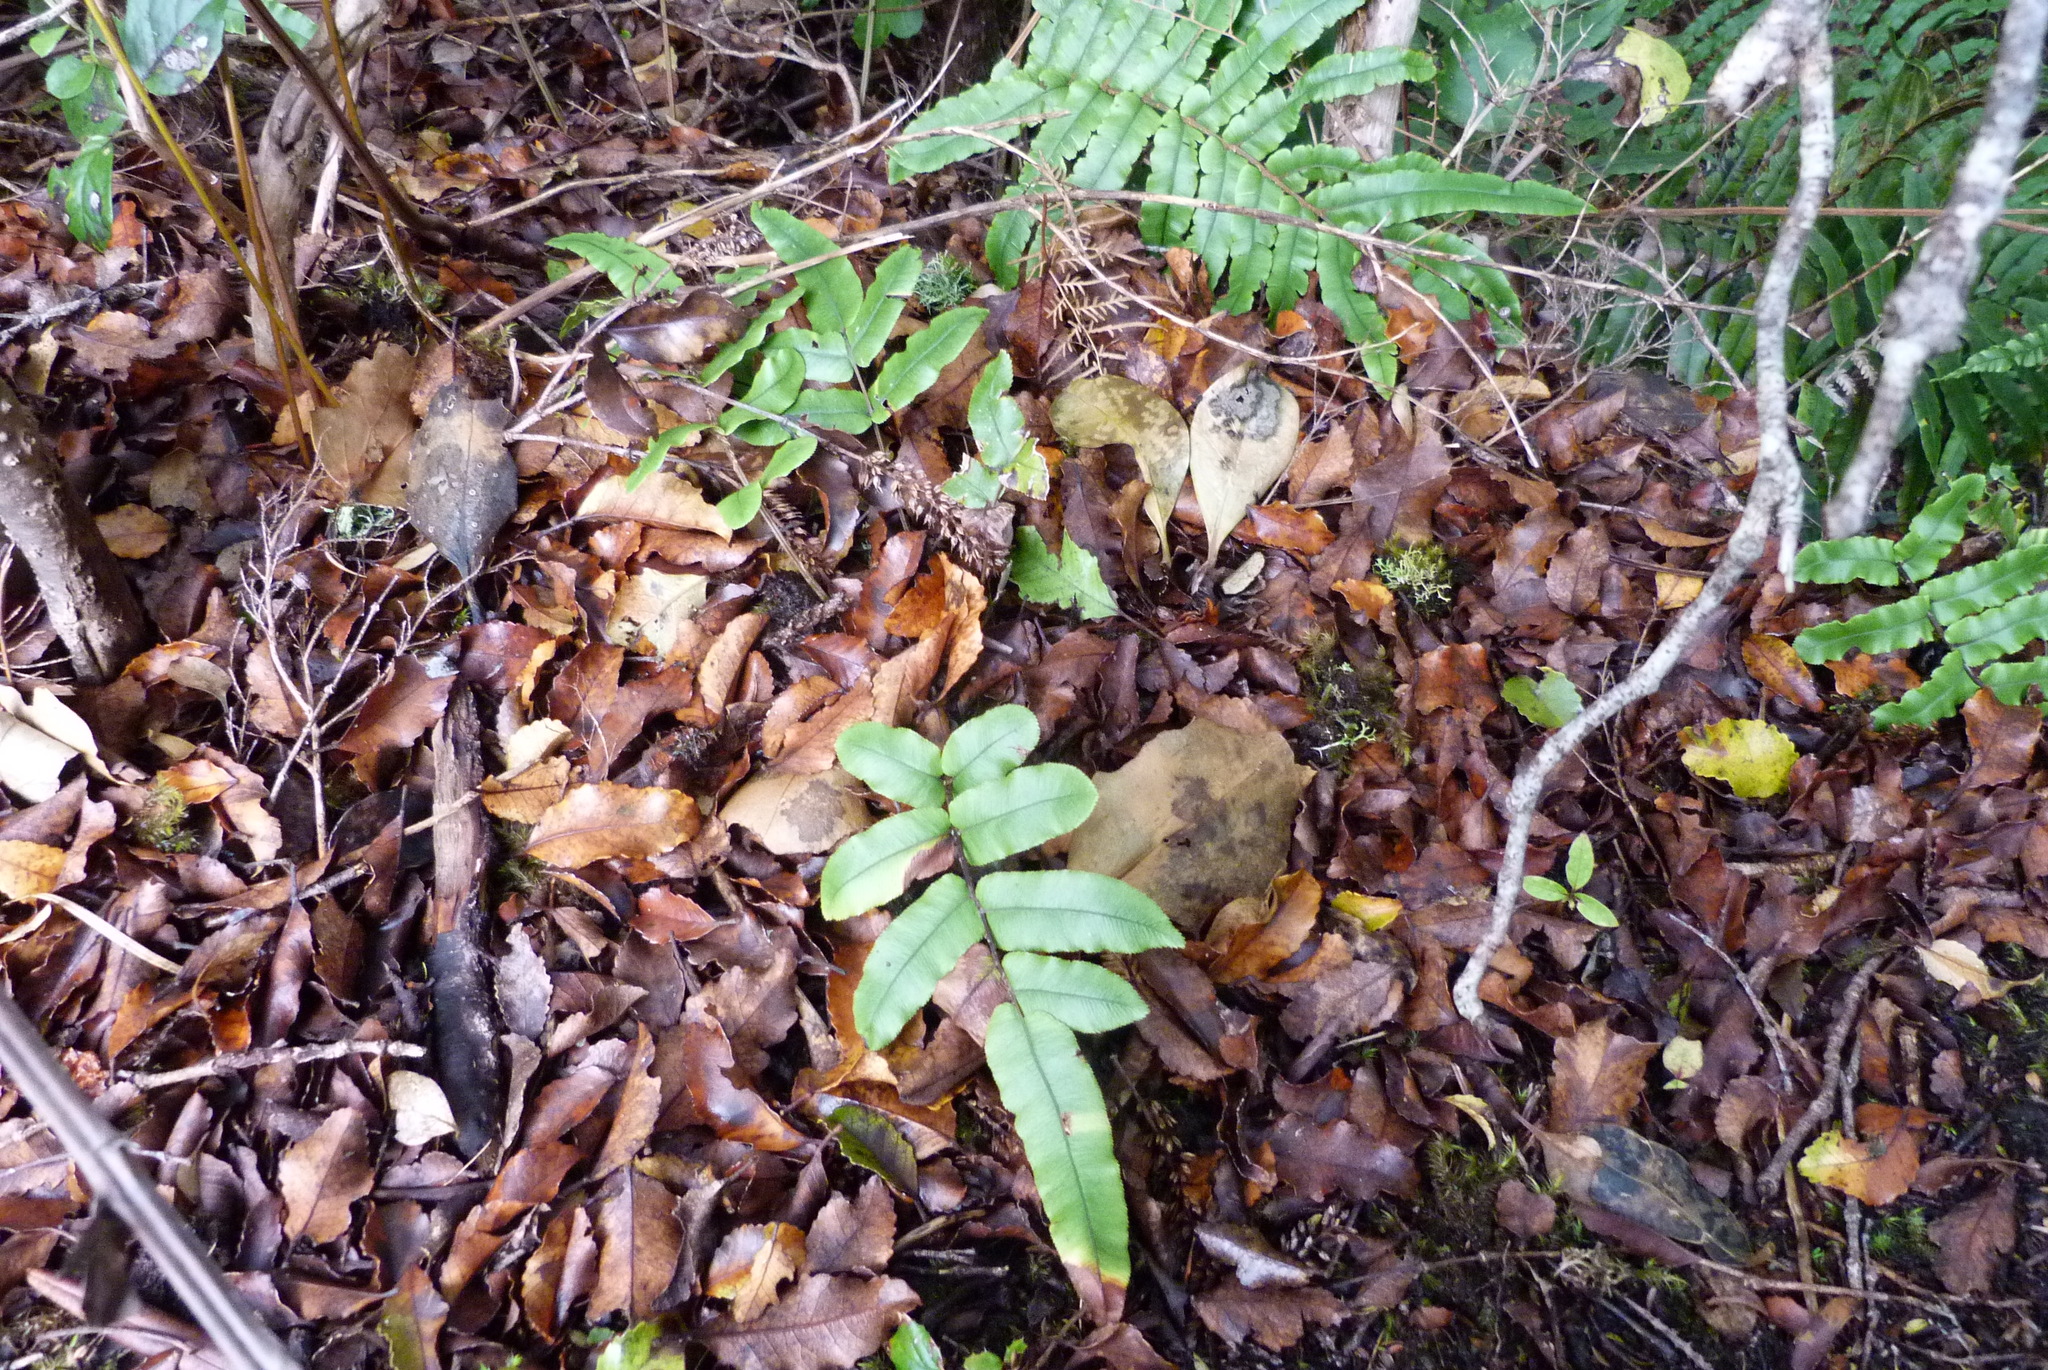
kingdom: Plantae
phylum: Tracheophyta
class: Polypodiopsida
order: Polypodiales
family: Blechnaceae
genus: Parablechnum
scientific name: Parablechnum procerum
